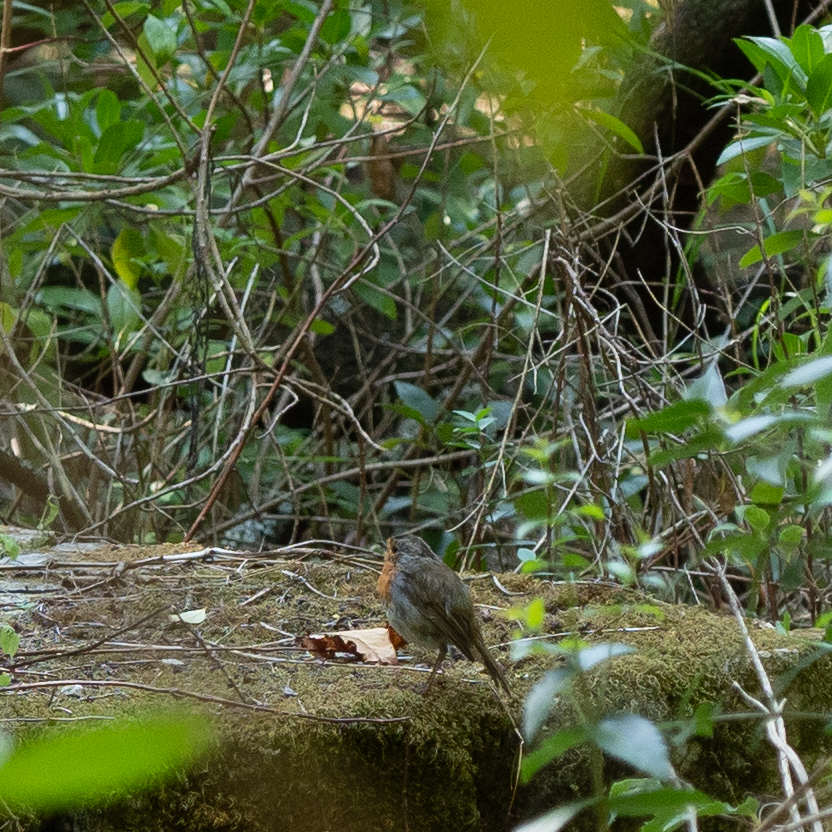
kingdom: Animalia
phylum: Chordata
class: Aves
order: Passeriformes
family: Muscicapidae
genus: Erithacus
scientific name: Erithacus rubecula
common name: European robin
